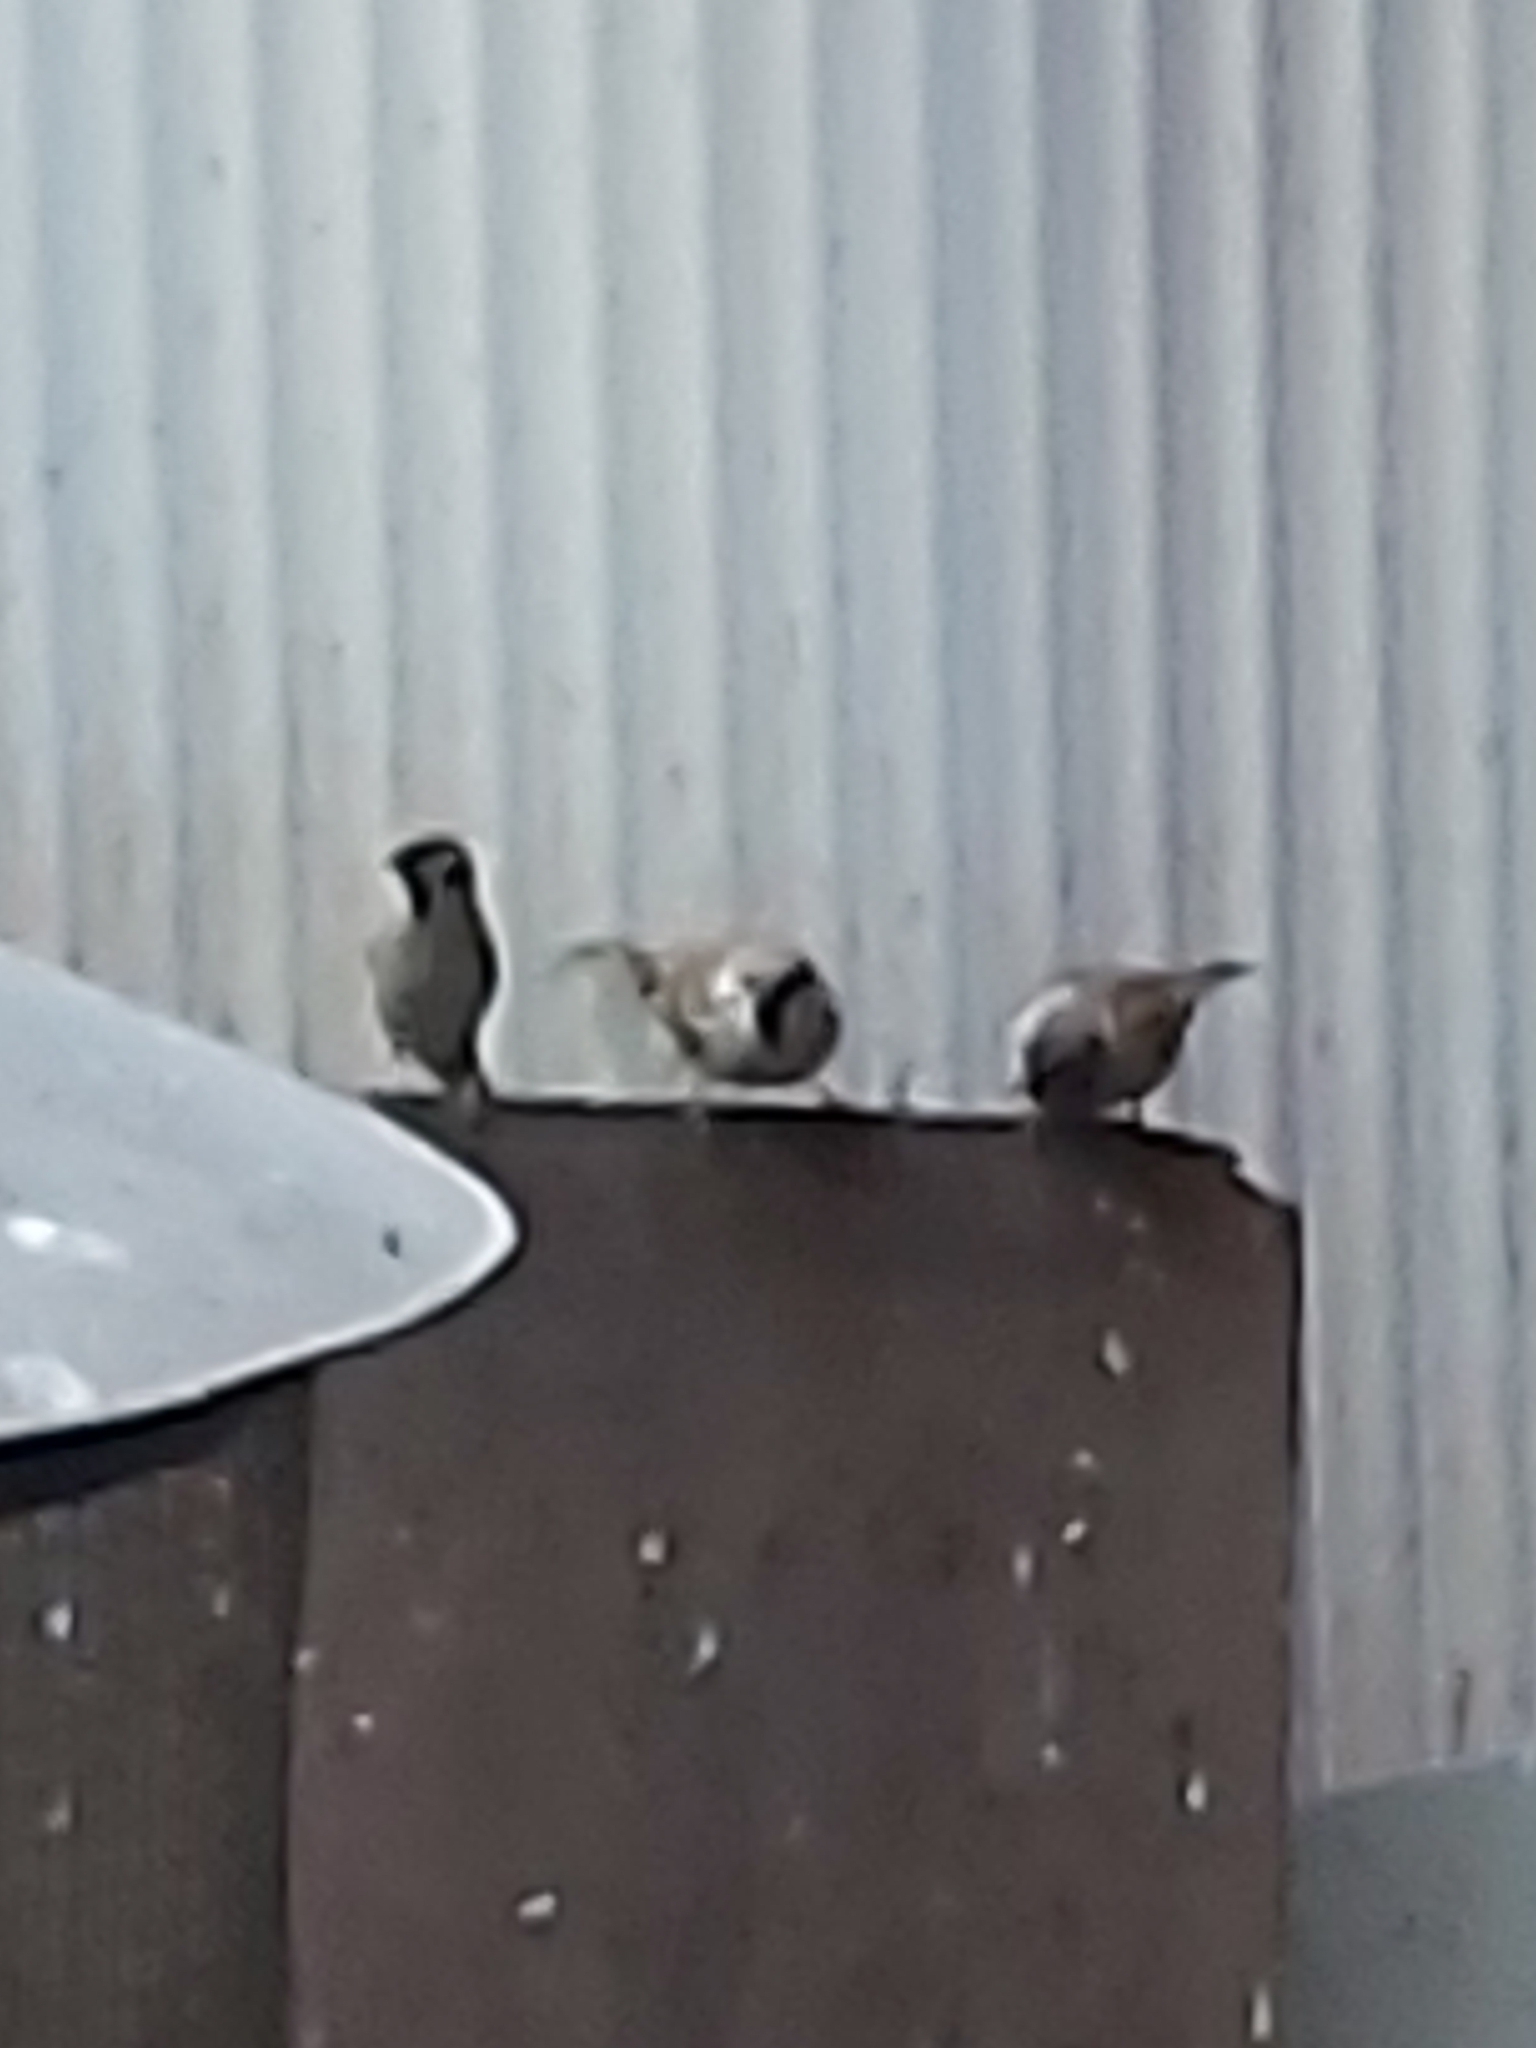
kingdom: Animalia
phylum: Chordata
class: Aves
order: Passeriformes
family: Passeridae
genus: Passer
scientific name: Passer montanus
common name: Eurasian tree sparrow
